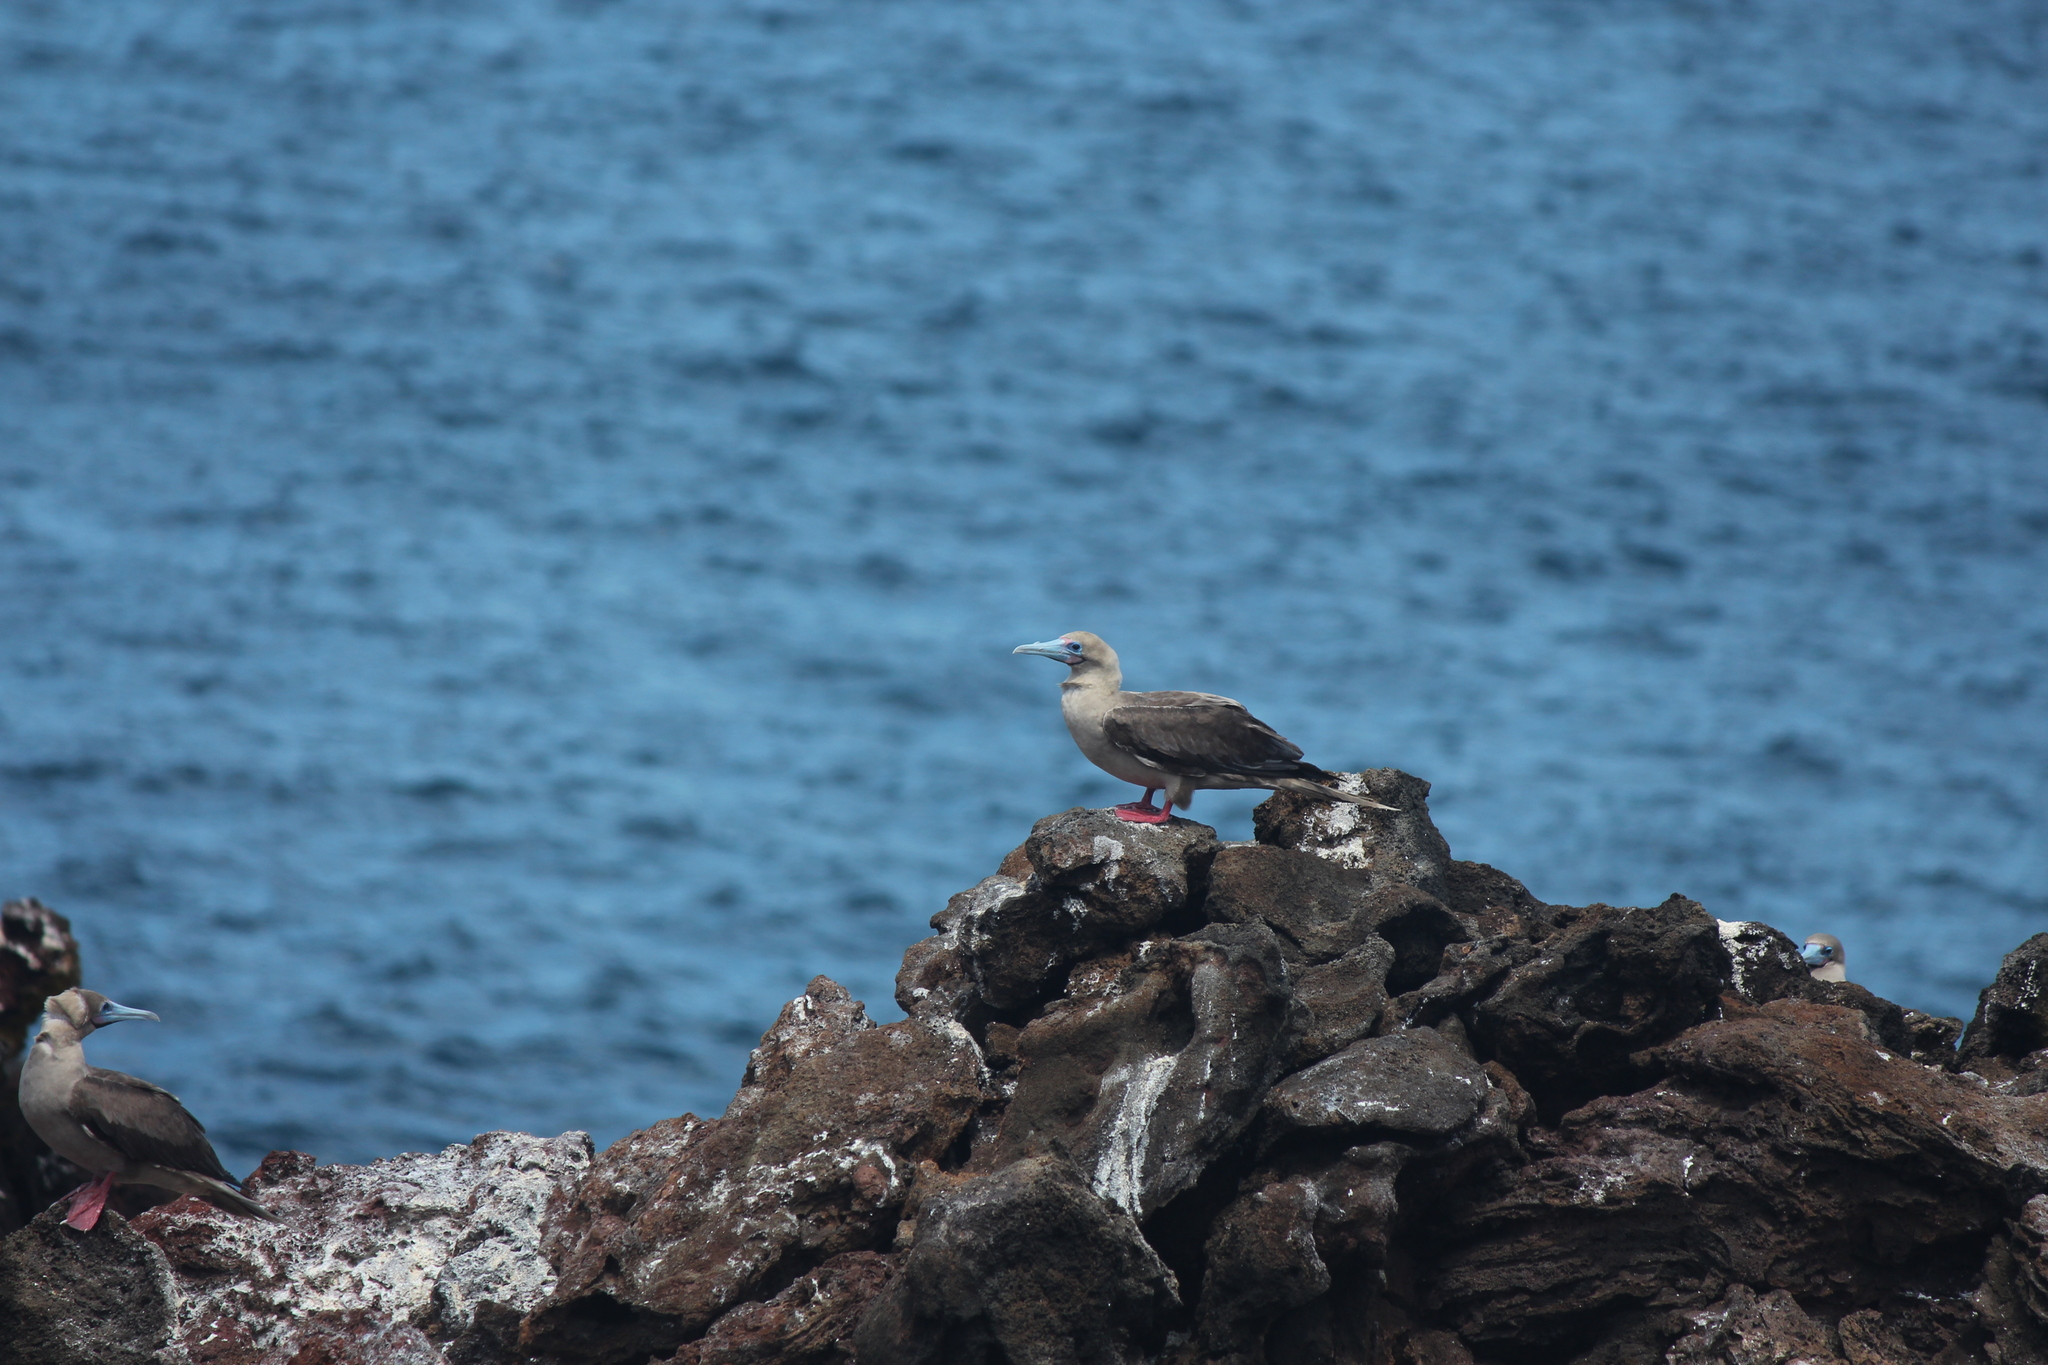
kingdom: Animalia
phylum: Chordata
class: Aves
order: Suliformes
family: Sulidae
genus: Sula
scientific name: Sula sula
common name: Red-footed booby
